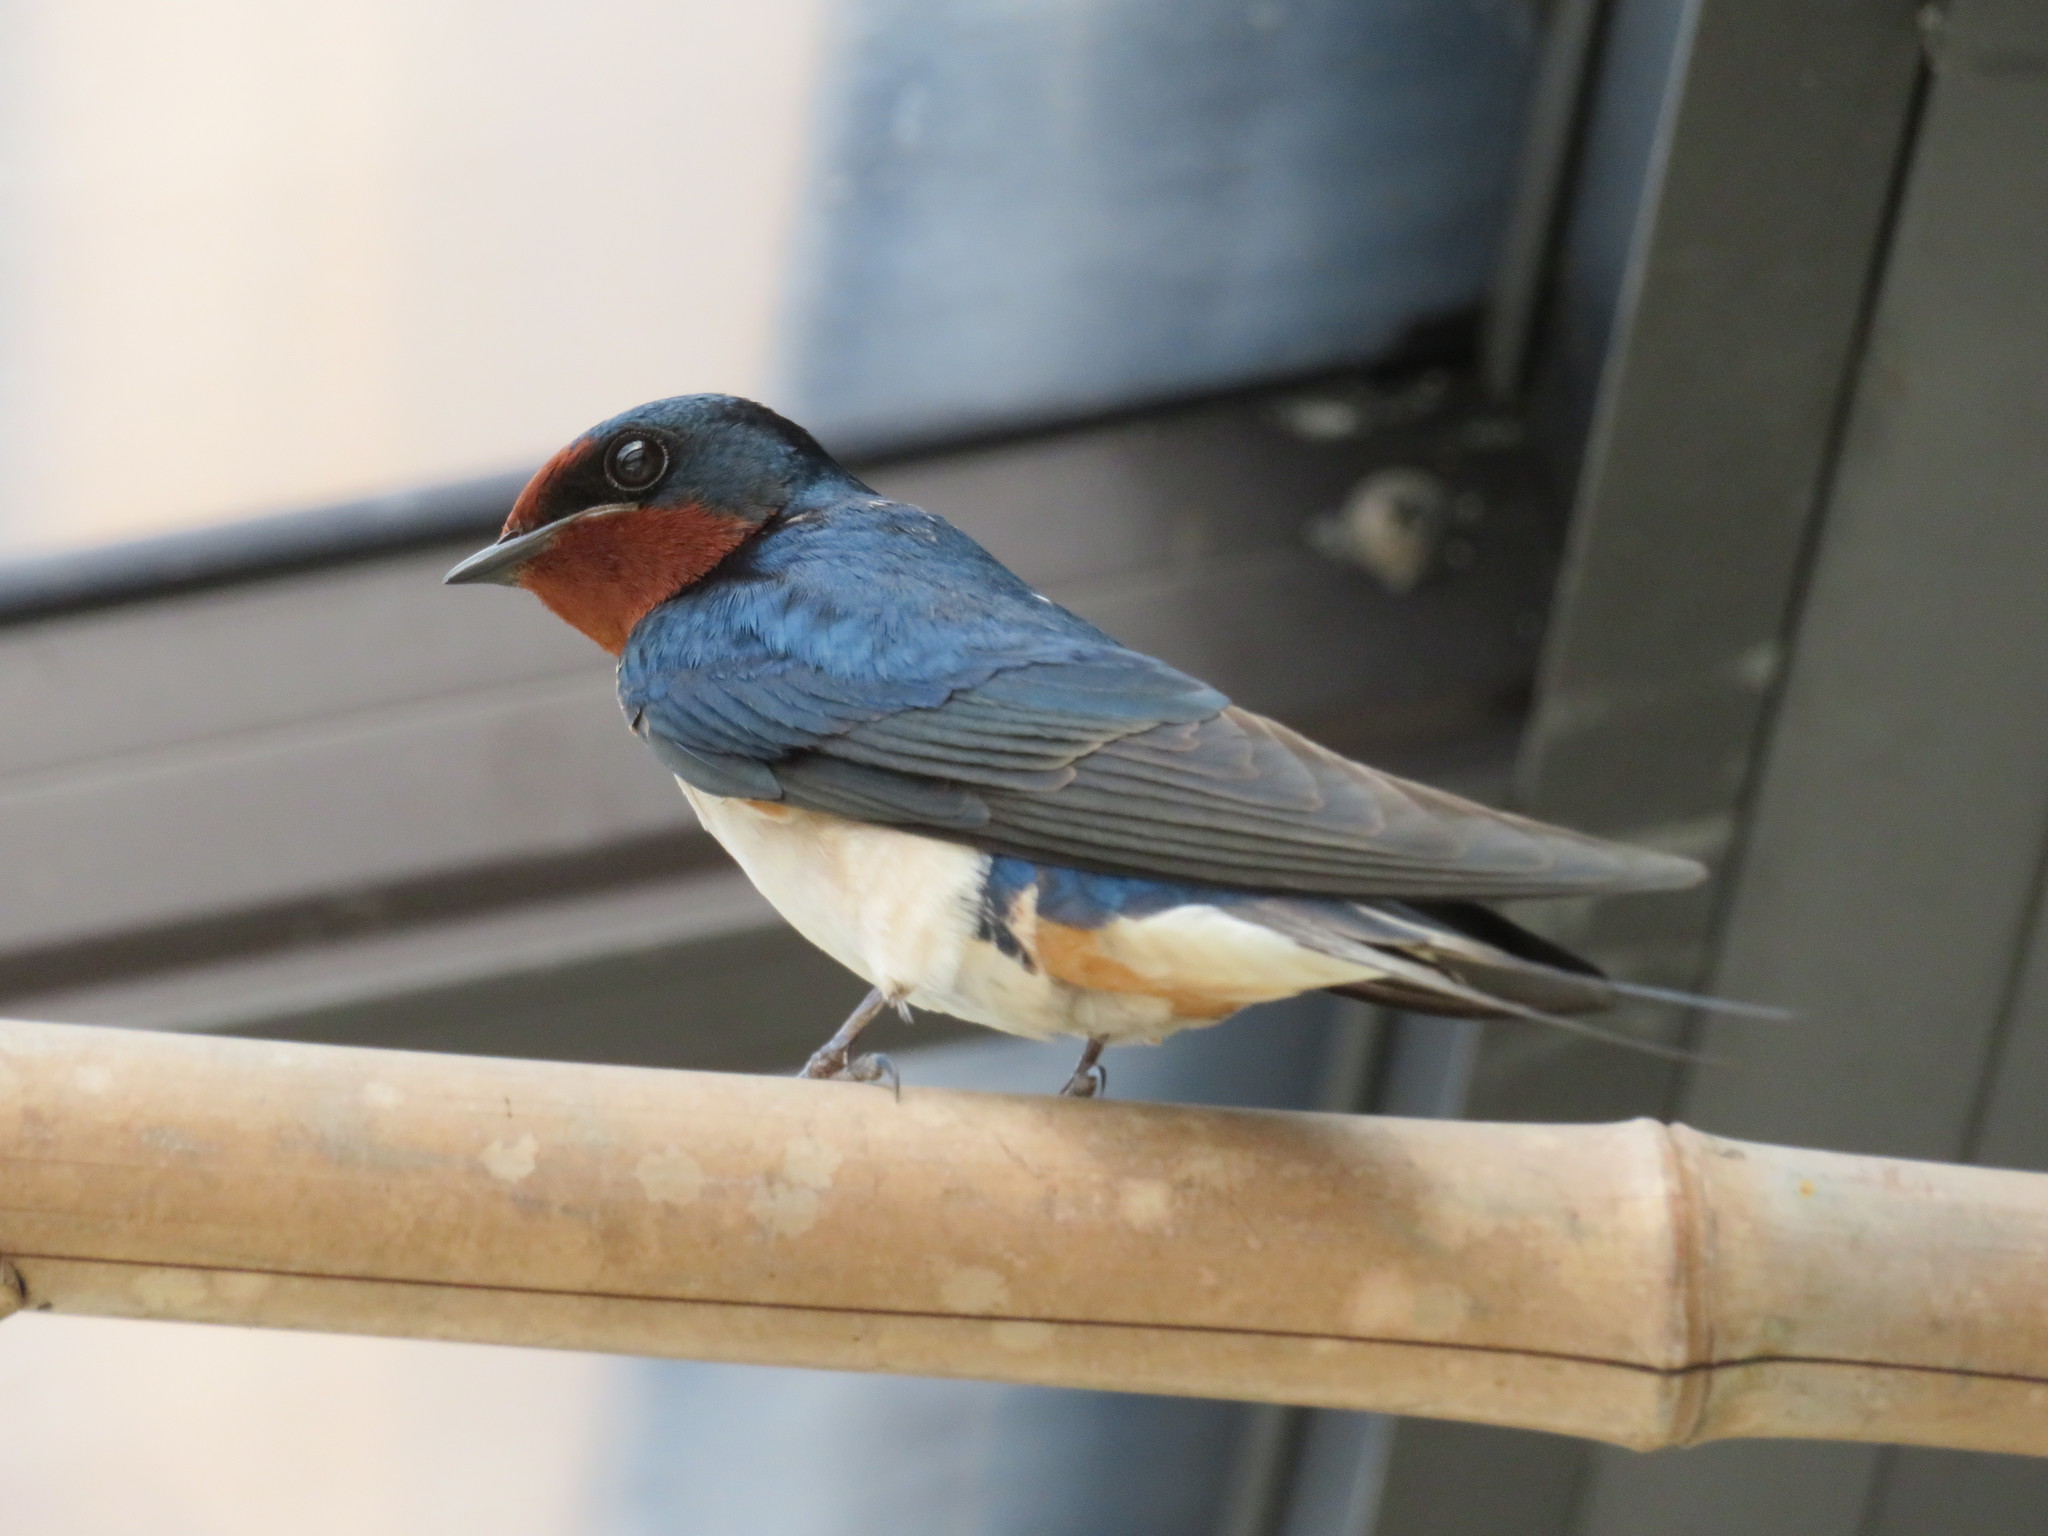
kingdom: Animalia
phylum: Chordata
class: Aves
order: Passeriformes
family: Hirundinidae
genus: Hirundo
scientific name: Hirundo rustica
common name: Barn swallow
